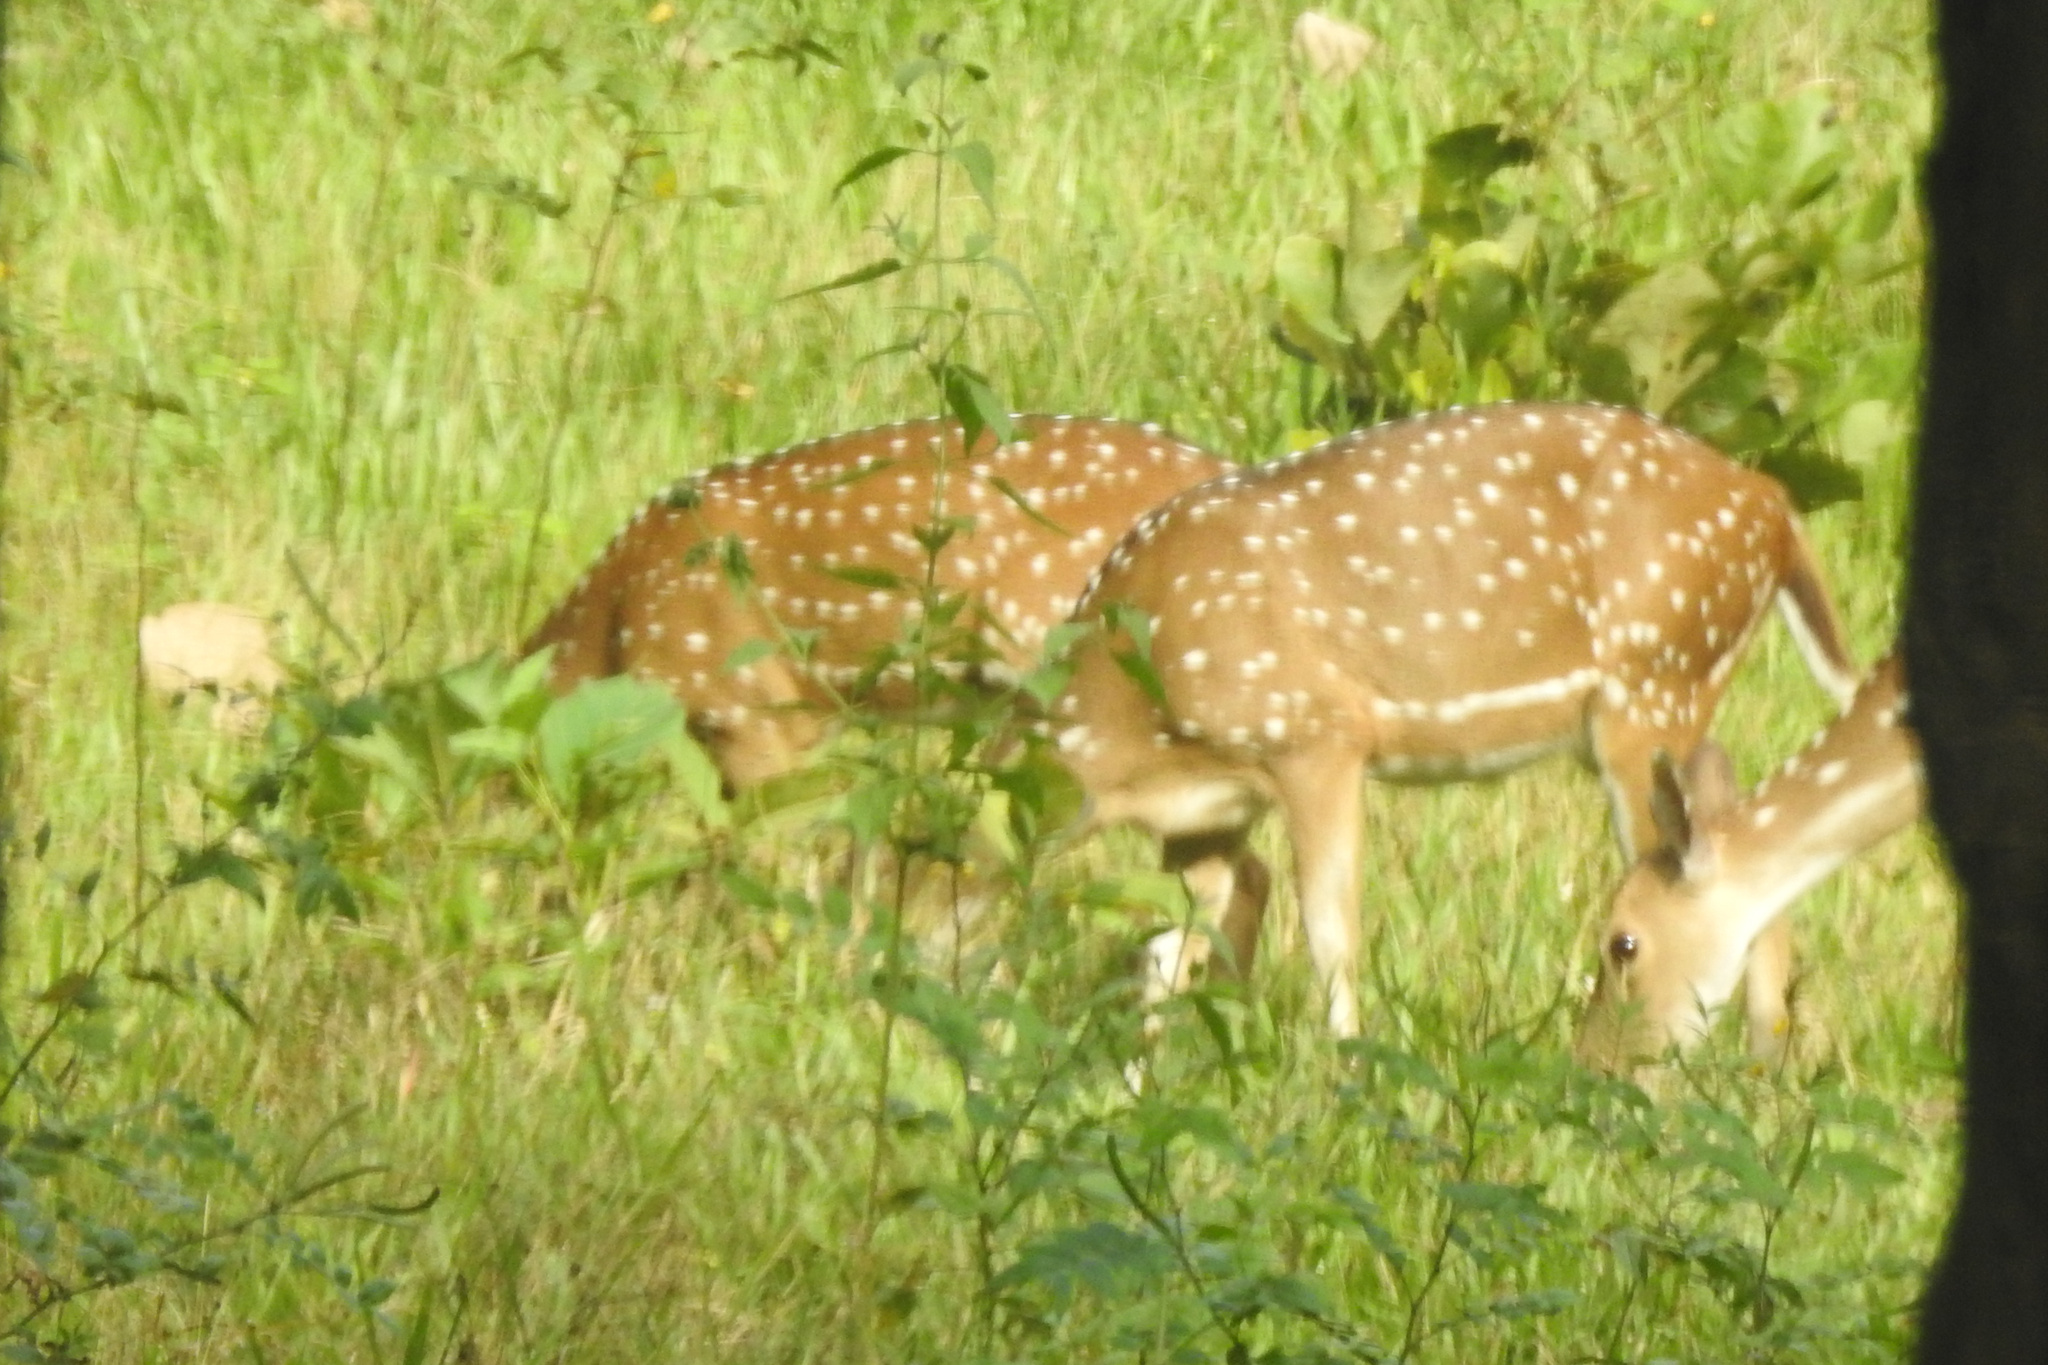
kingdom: Animalia
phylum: Chordata
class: Mammalia
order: Artiodactyla
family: Cervidae
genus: Axis
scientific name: Axis axis
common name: Chital
